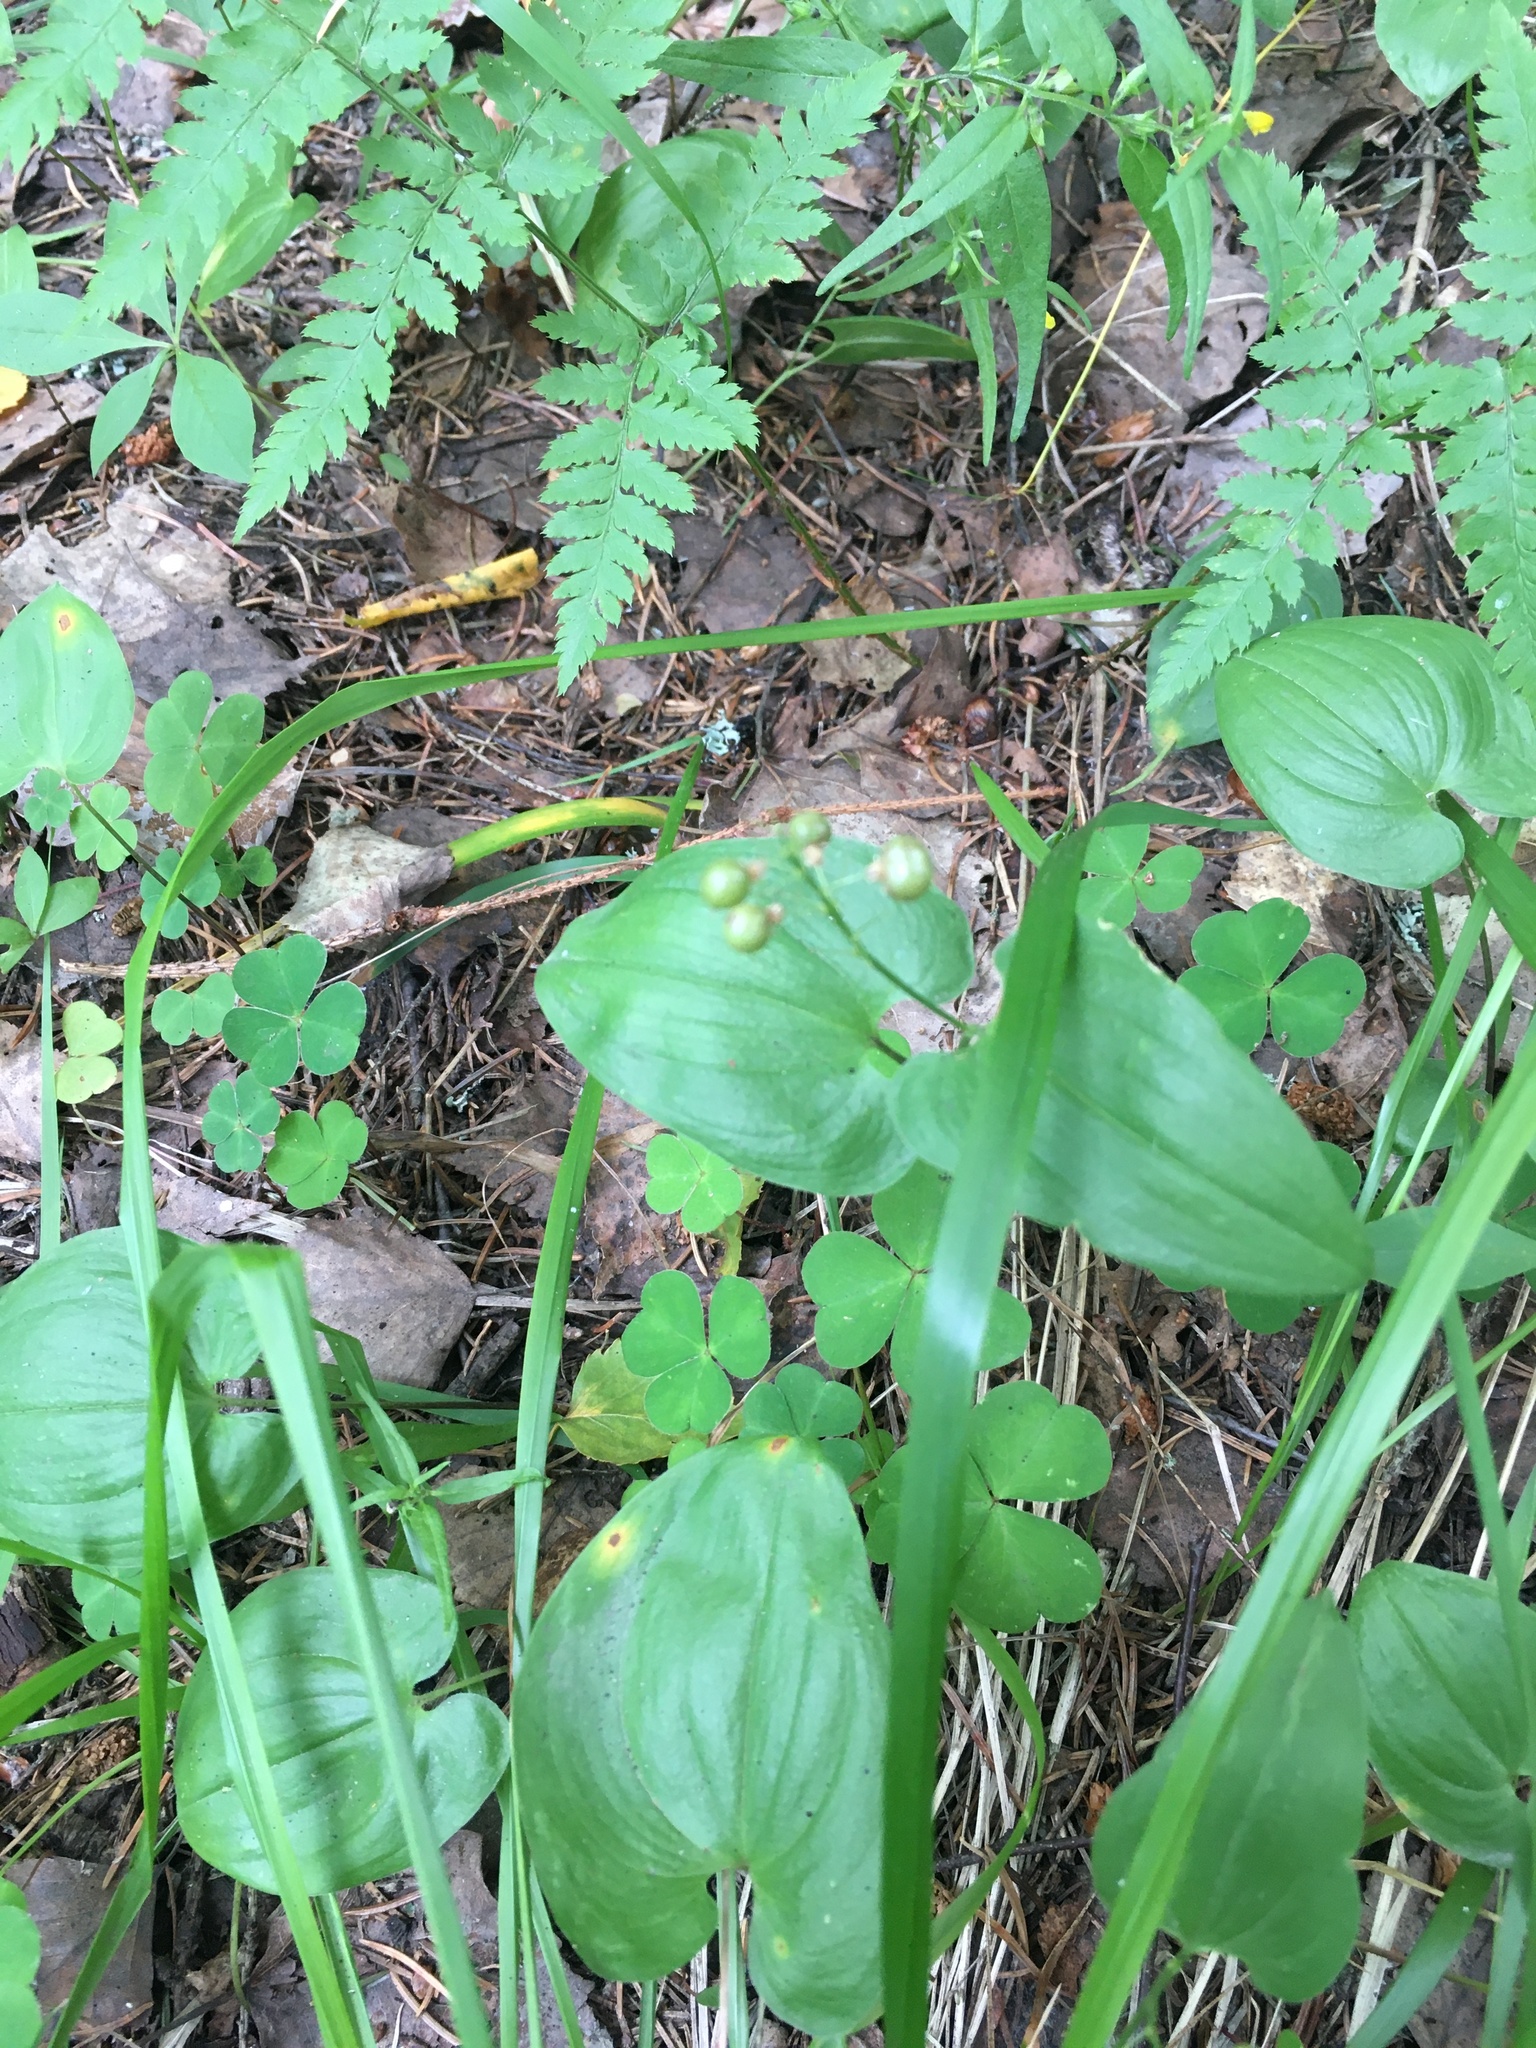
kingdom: Plantae
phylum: Tracheophyta
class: Liliopsida
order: Asparagales
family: Asparagaceae
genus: Maianthemum
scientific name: Maianthemum bifolium
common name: May lily
